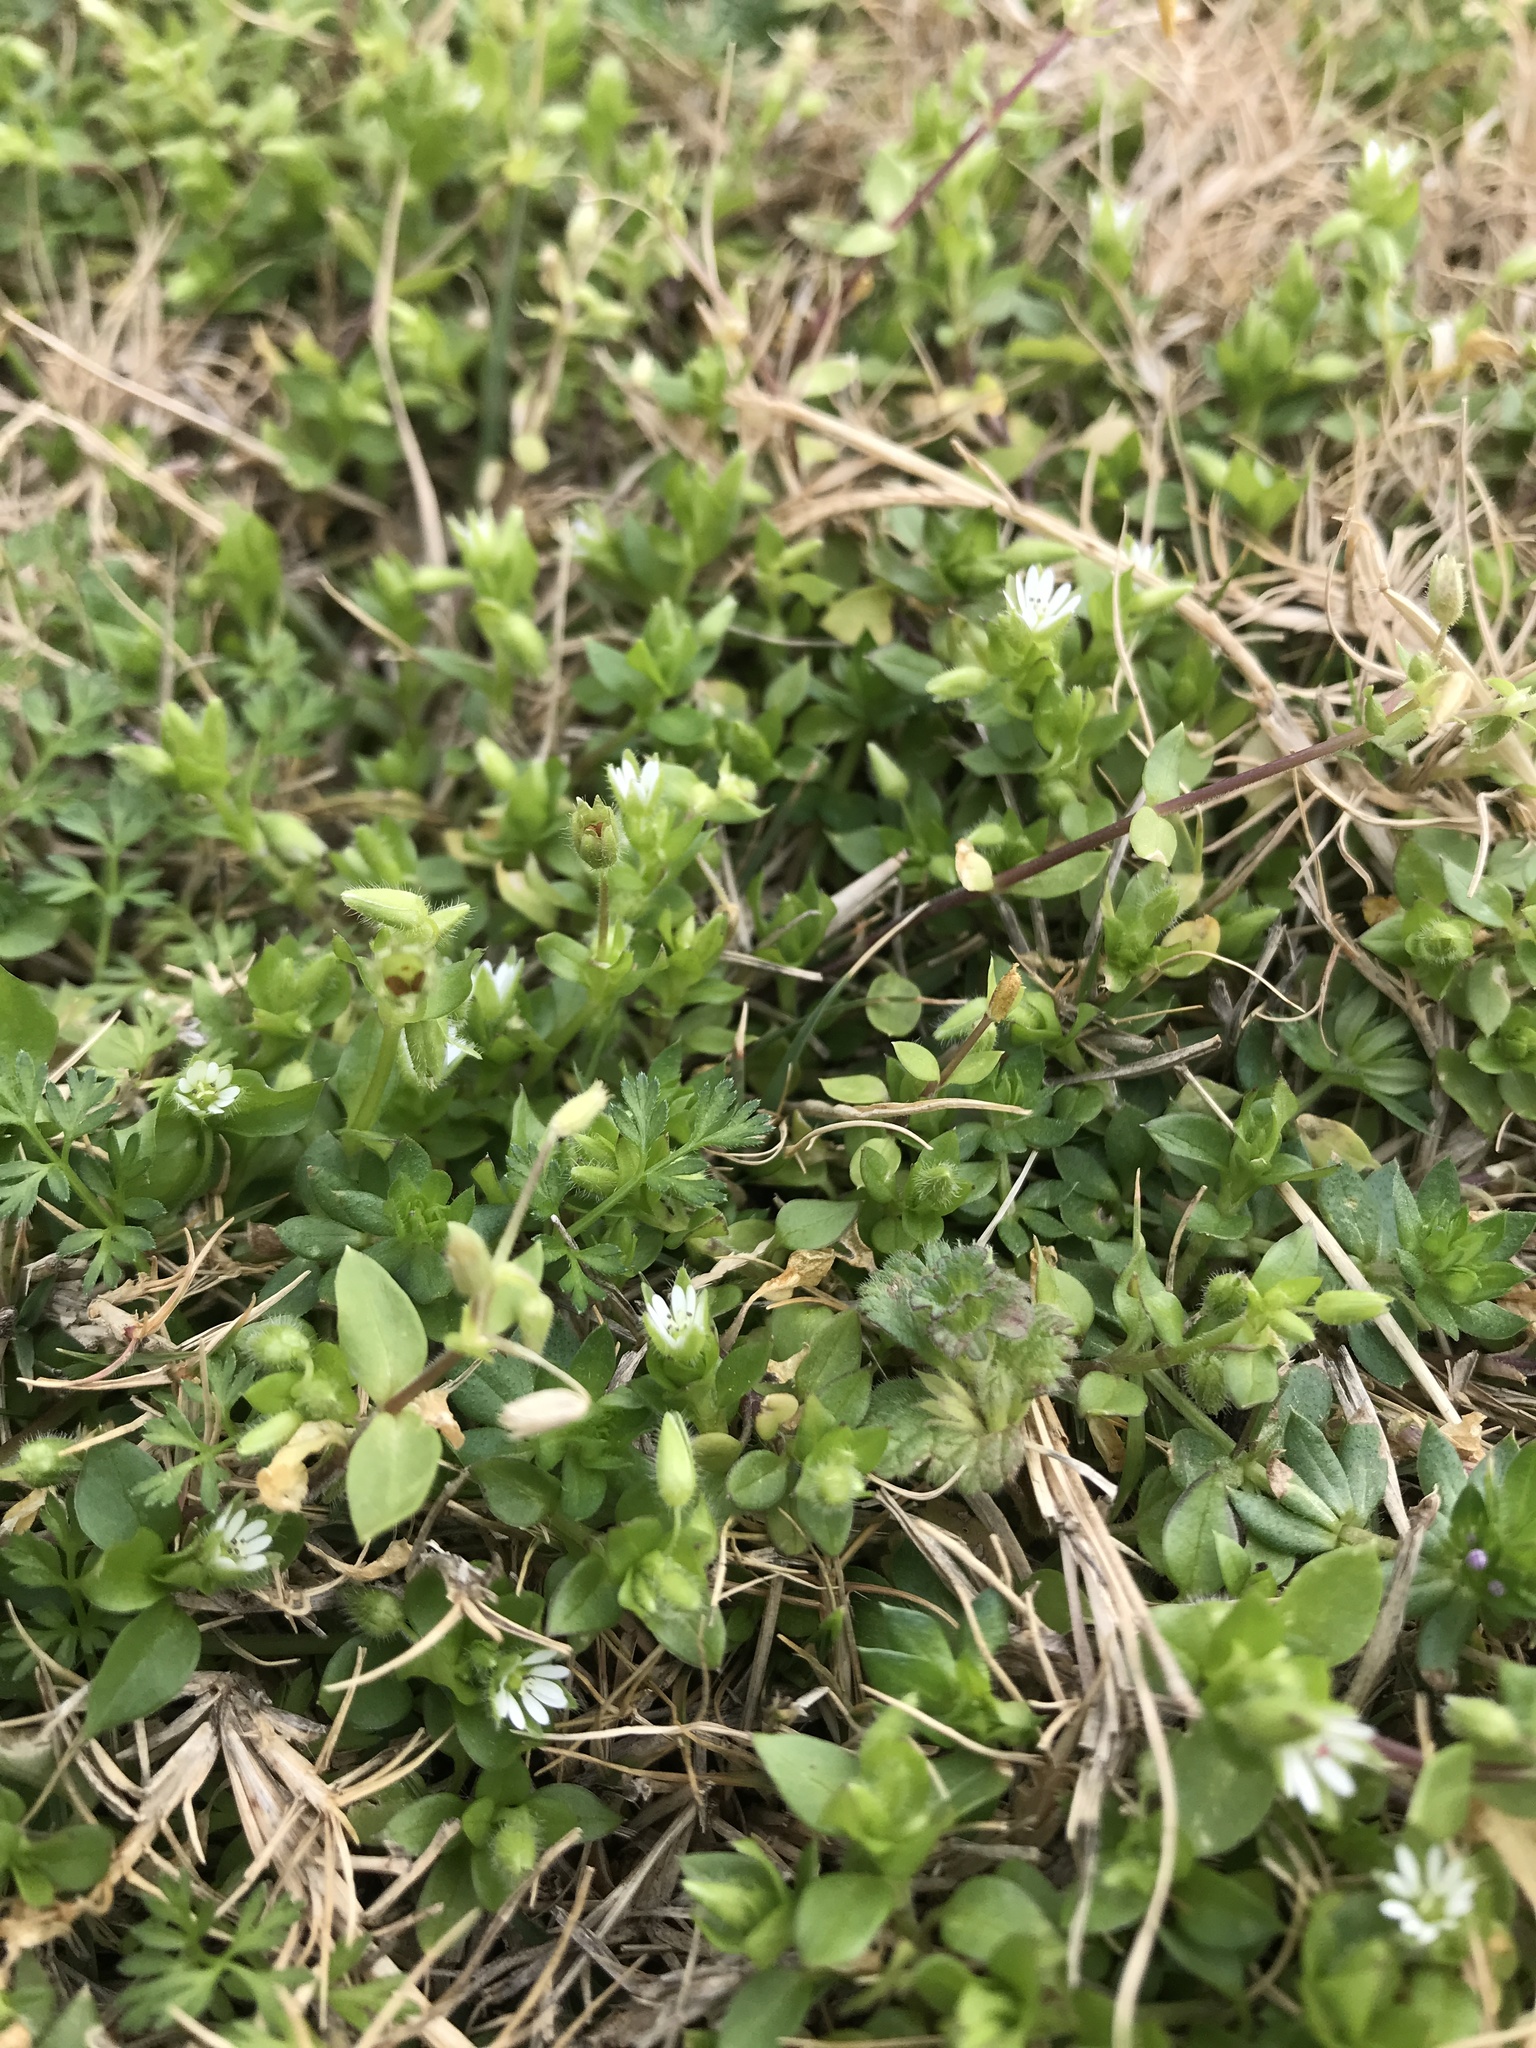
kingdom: Plantae
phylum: Tracheophyta
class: Magnoliopsida
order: Caryophyllales
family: Caryophyllaceae
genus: Stellaria
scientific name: Stellaria media
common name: Common chickweed
